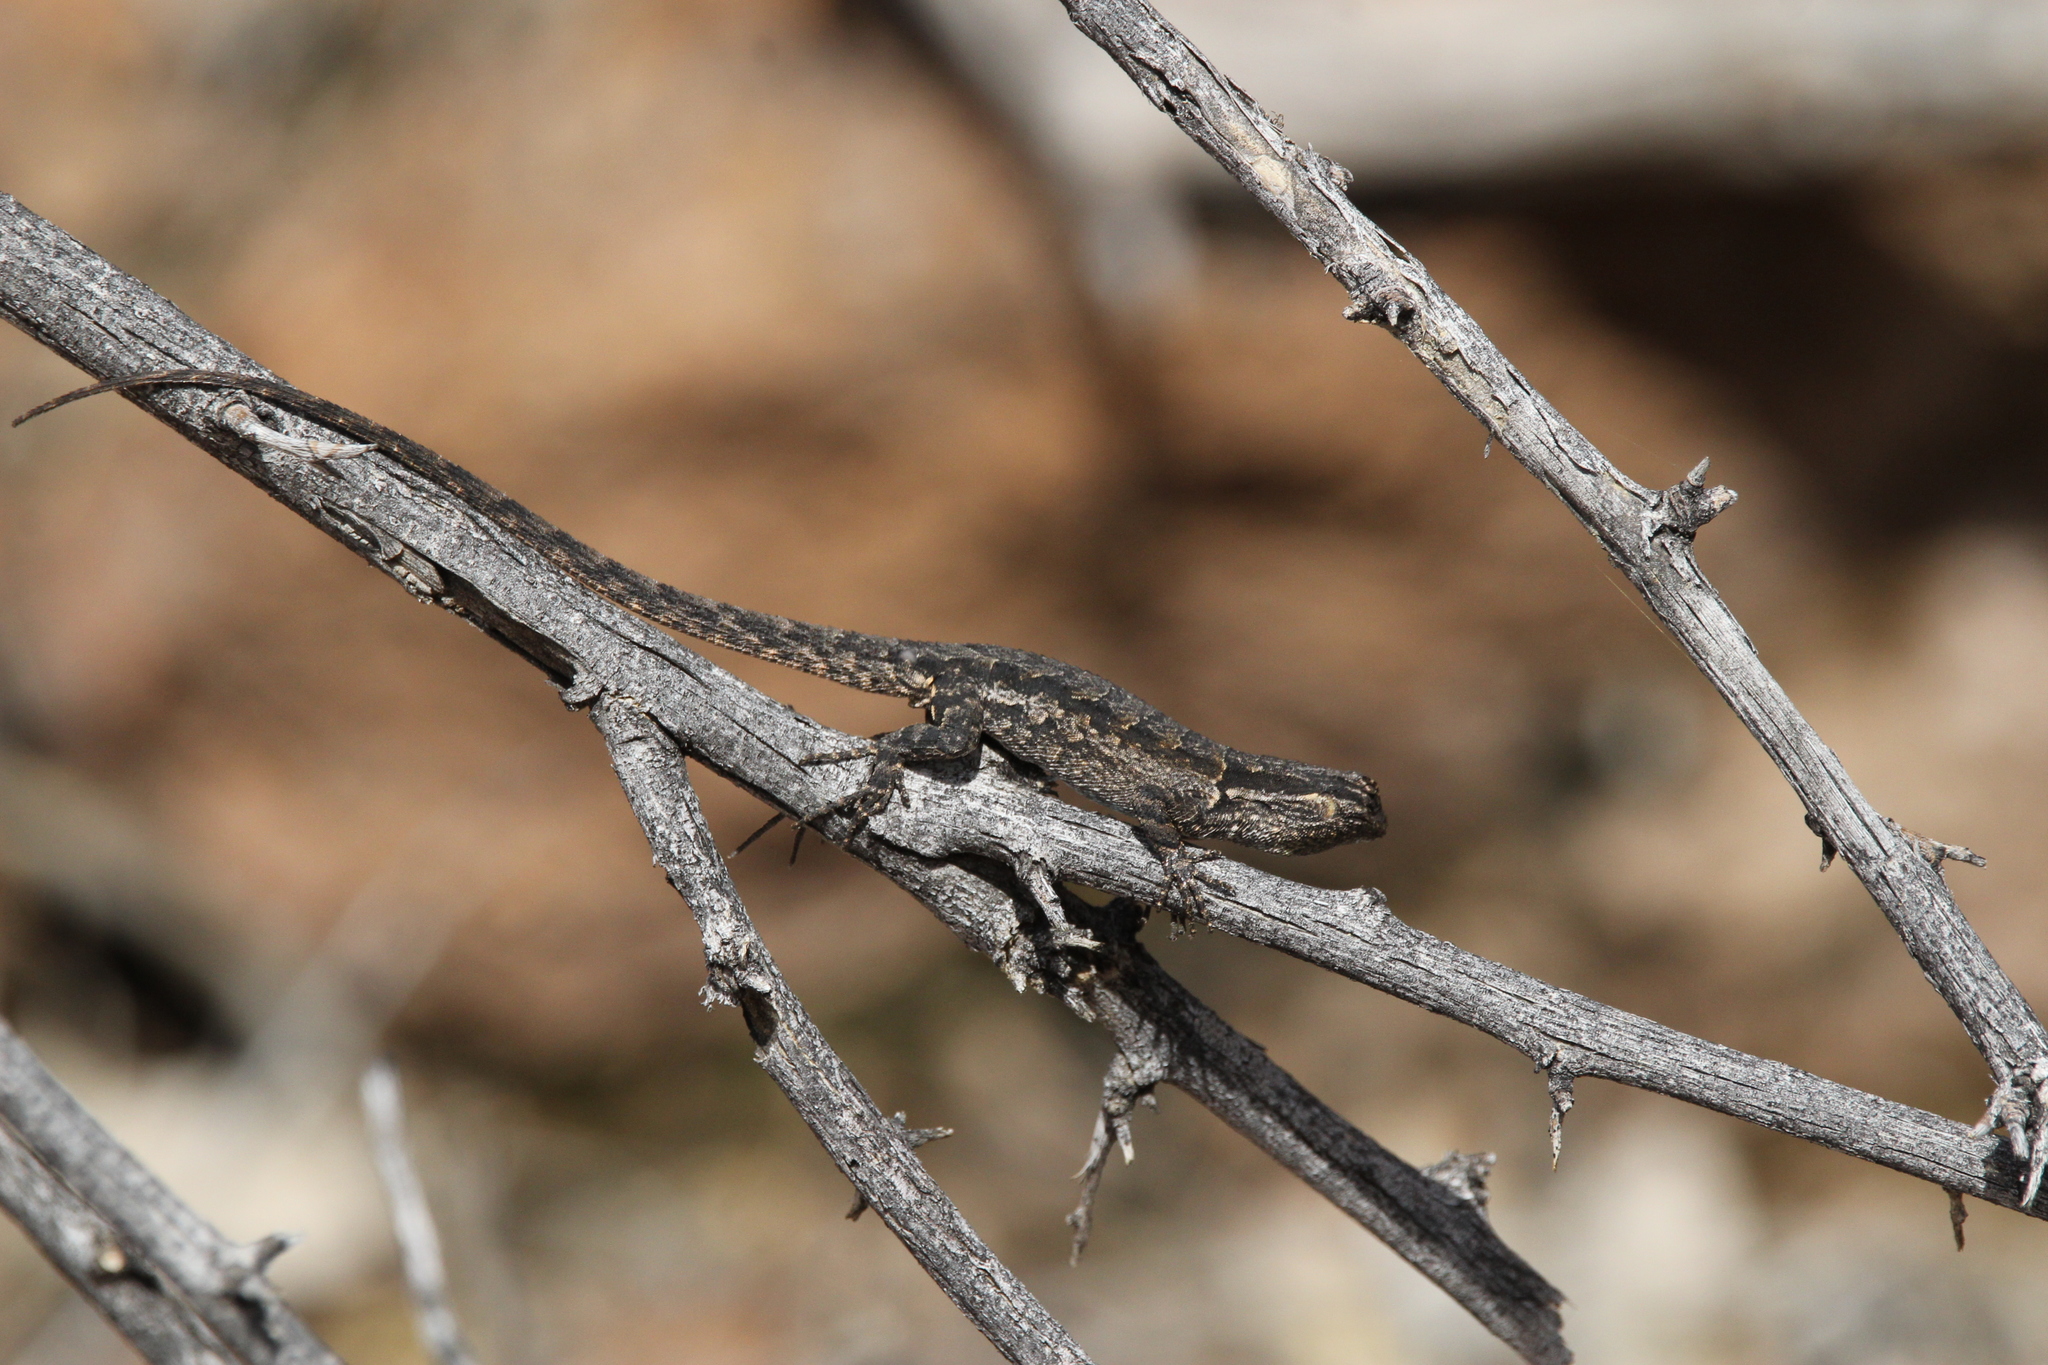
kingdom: Animalia
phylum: Chordata
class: Squamata
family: Phrynosomatidae
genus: Urosaurus
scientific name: Urosaurus ornatus
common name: Ornate tree lizard
